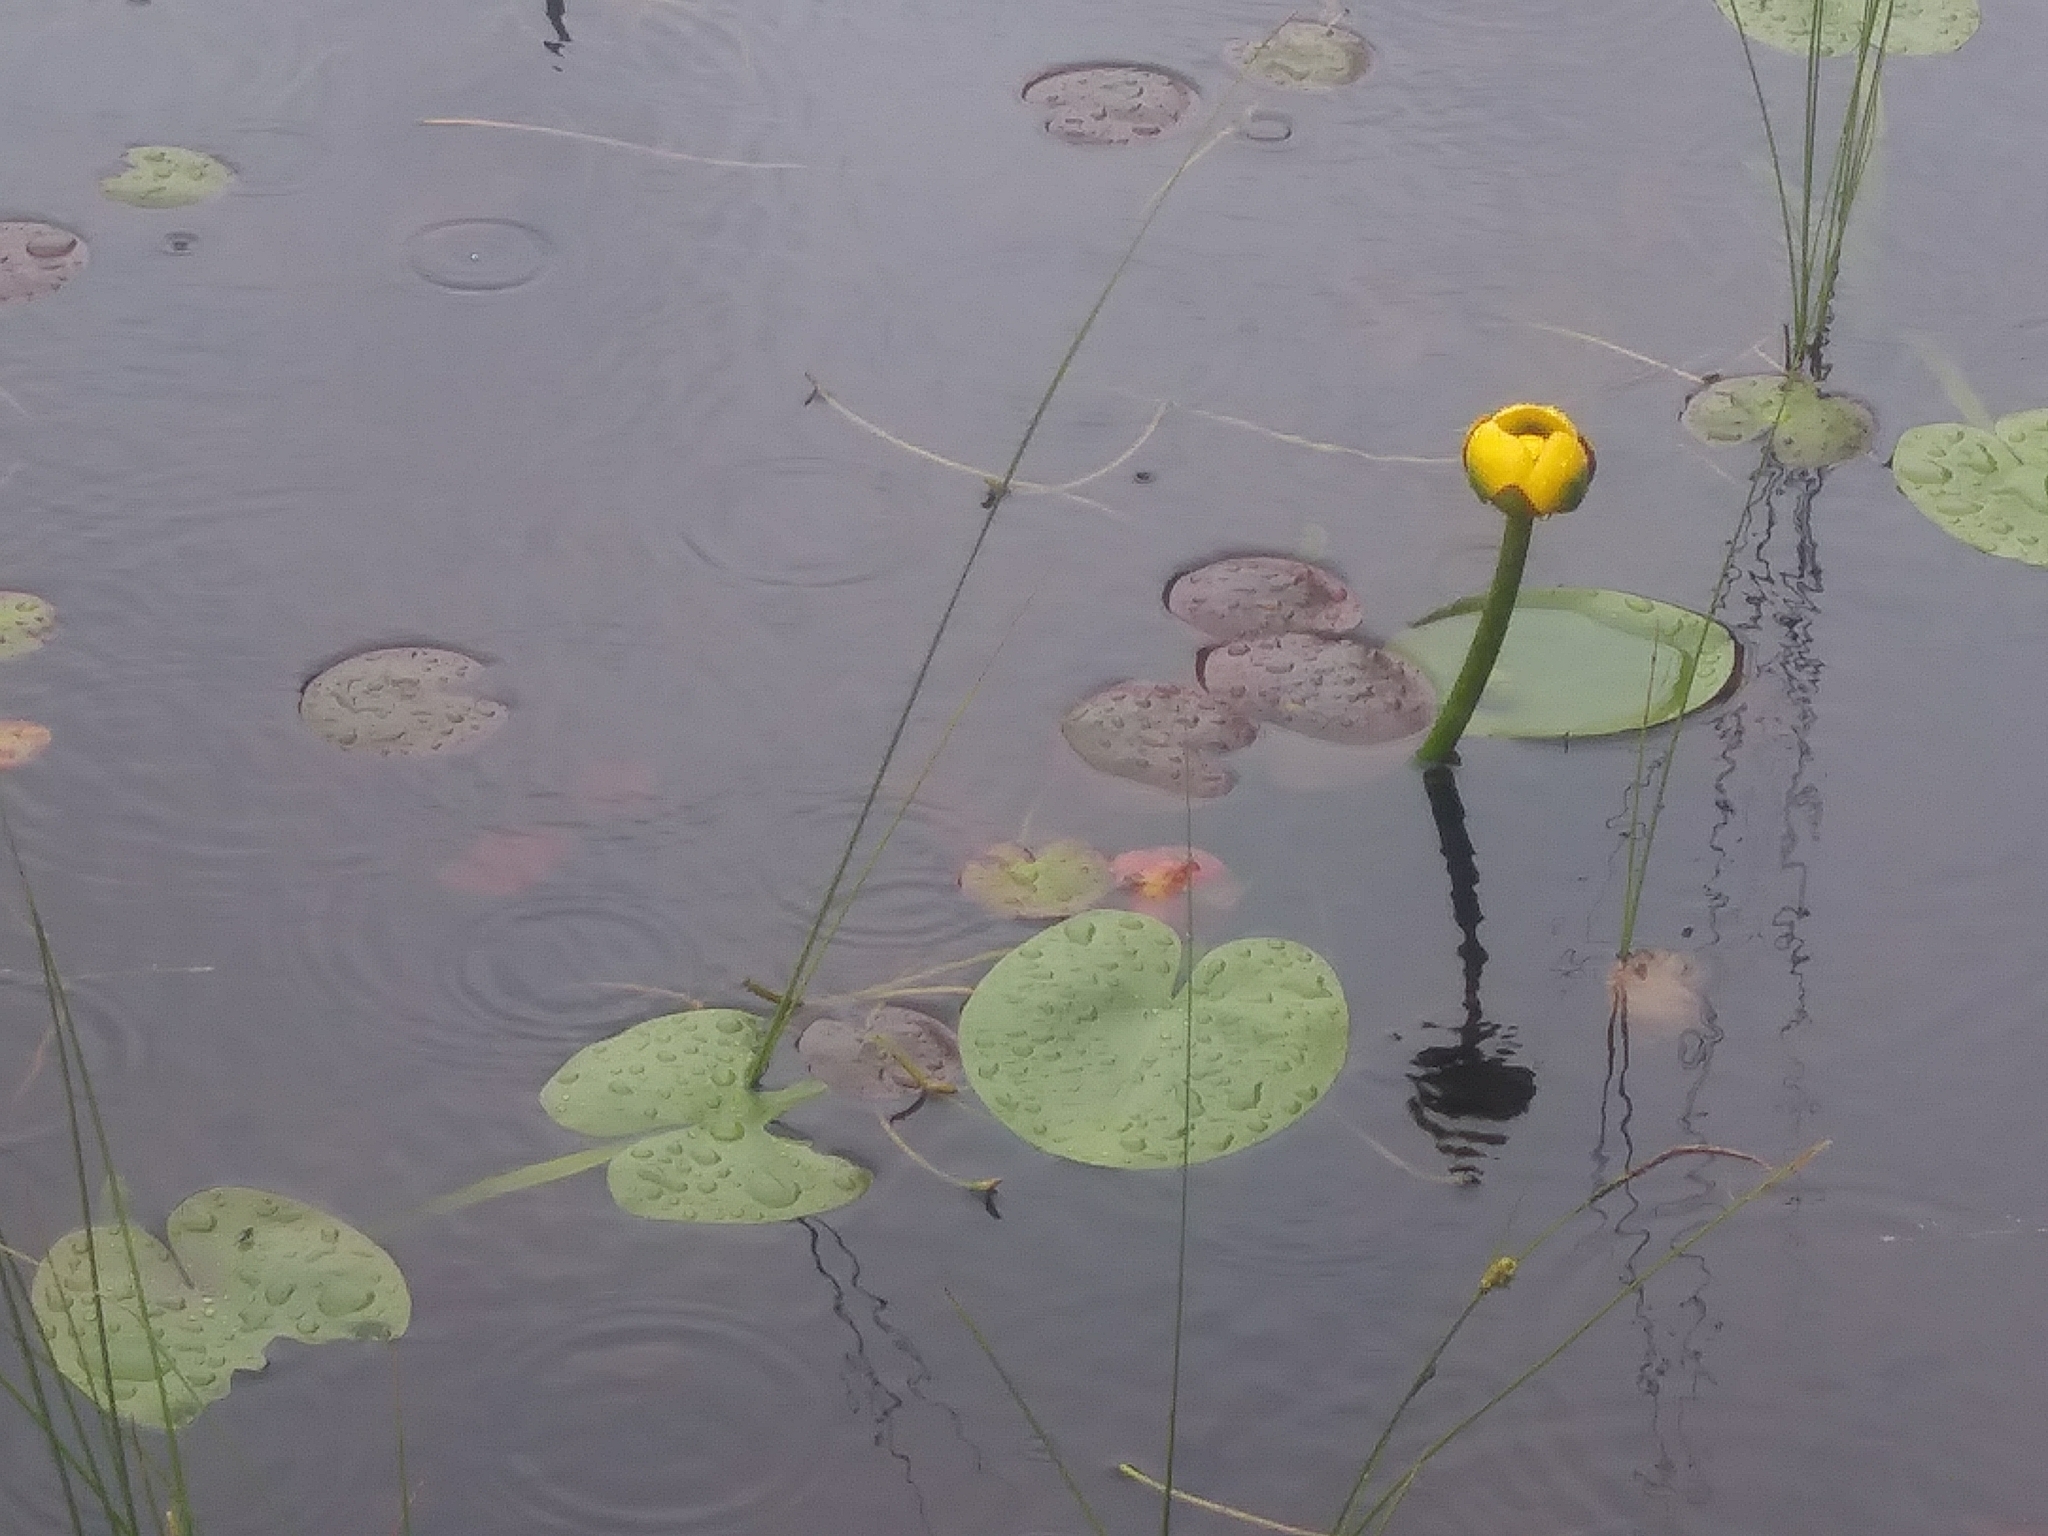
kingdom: Plantae
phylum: Tracheophyta
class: Magnoliopsida
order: Nymphaeales
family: Nymphaeaceae
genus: Nuphar
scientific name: Nuphar variegata
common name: Beaver-root
